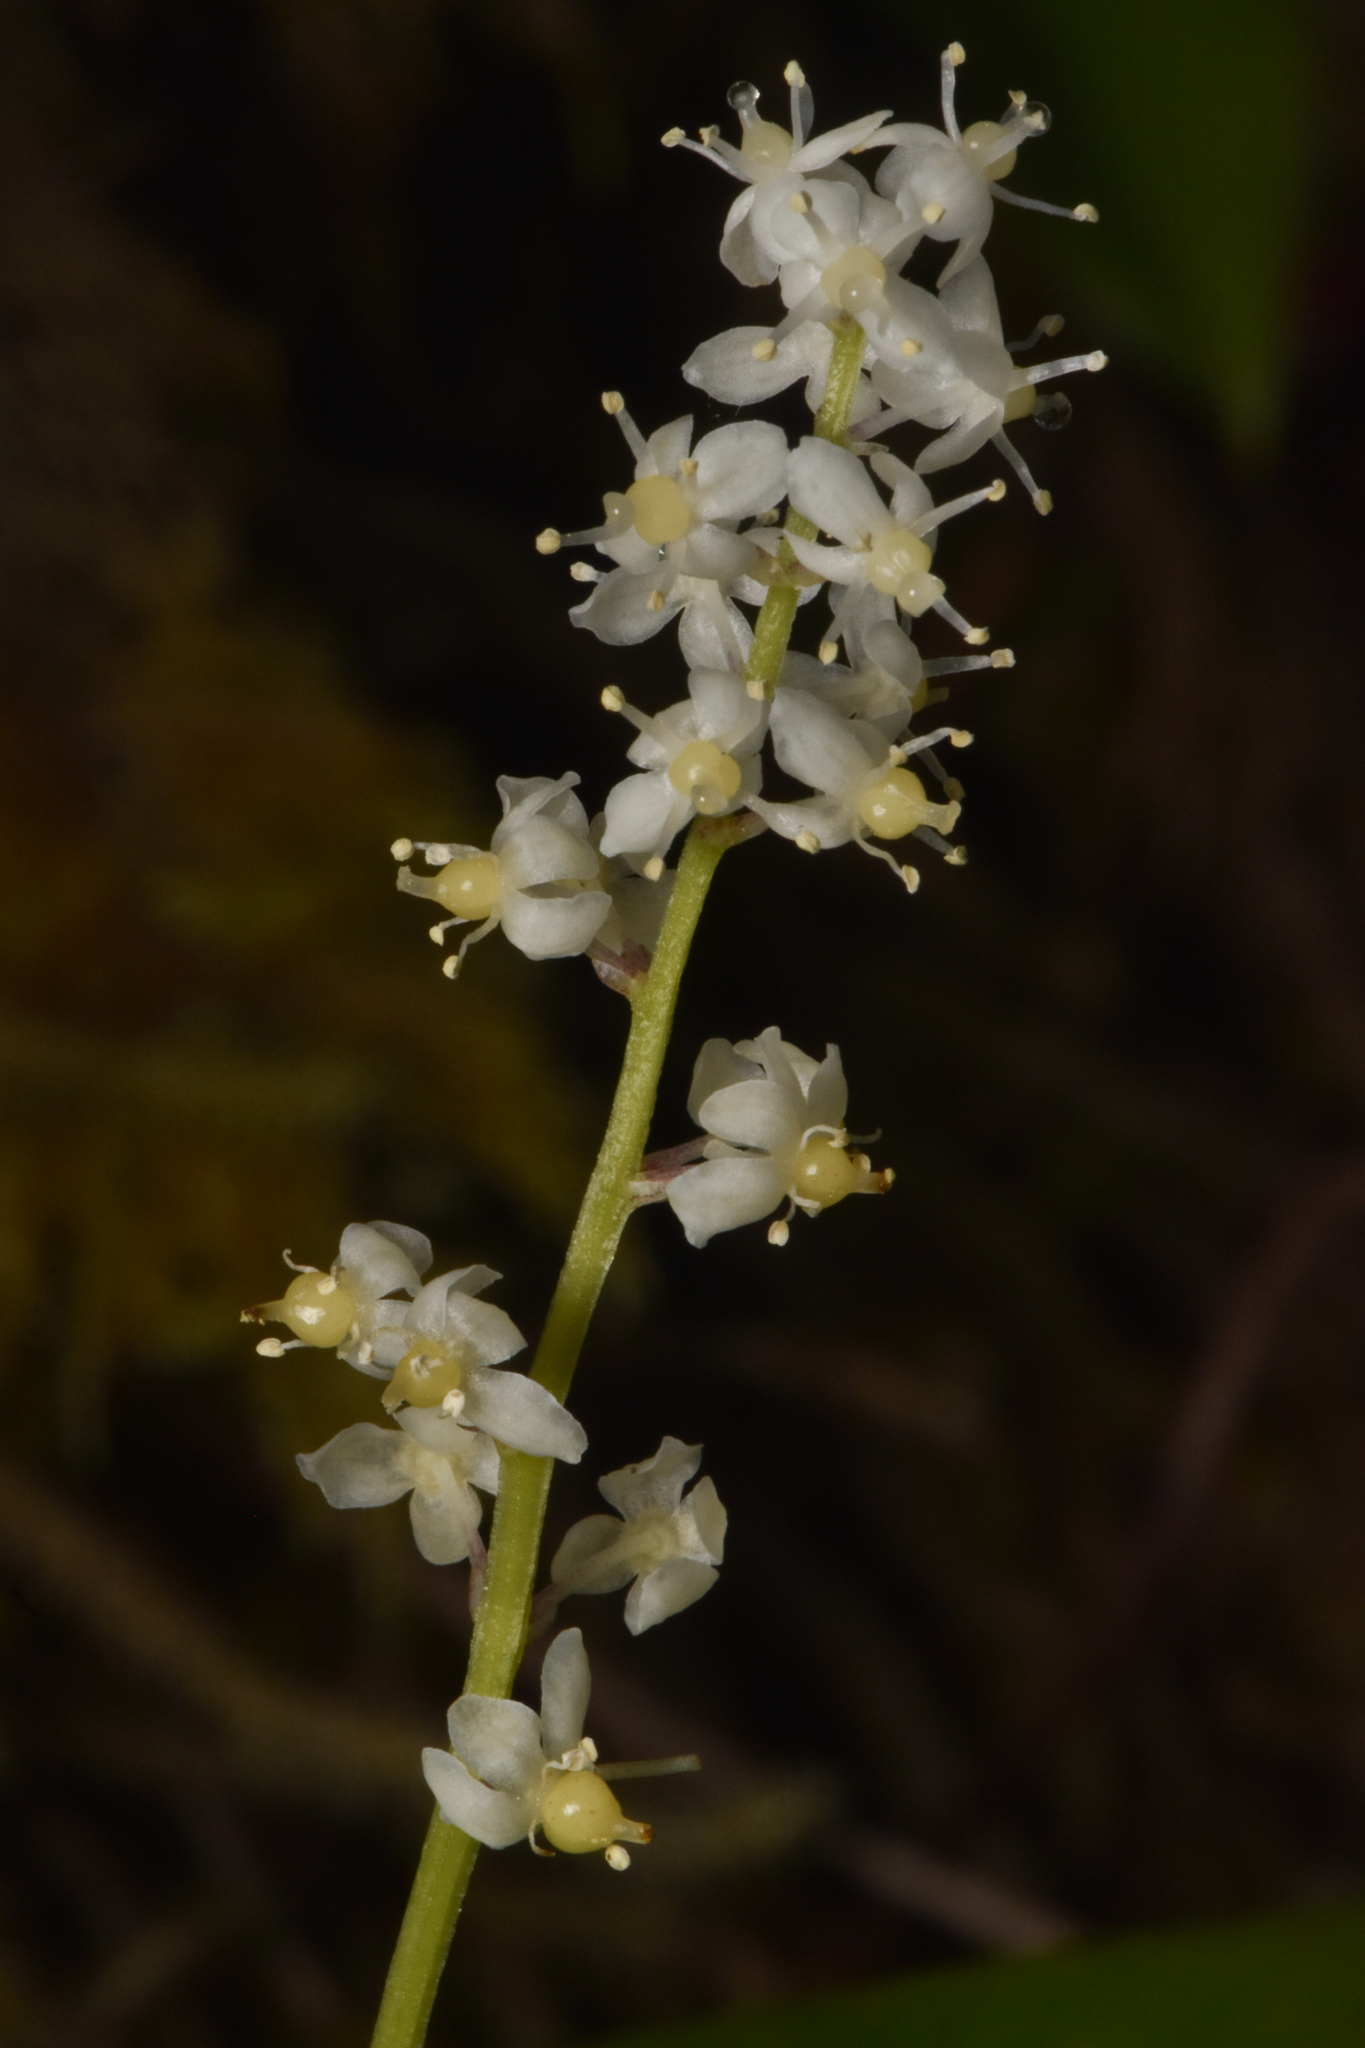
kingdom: Plantae
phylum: Tracheophyta
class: Liliopsida
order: Asparagales
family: Asparagaceae
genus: Maianthemum
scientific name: Maianthemum dilatatum
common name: False lily-of-the-valley
